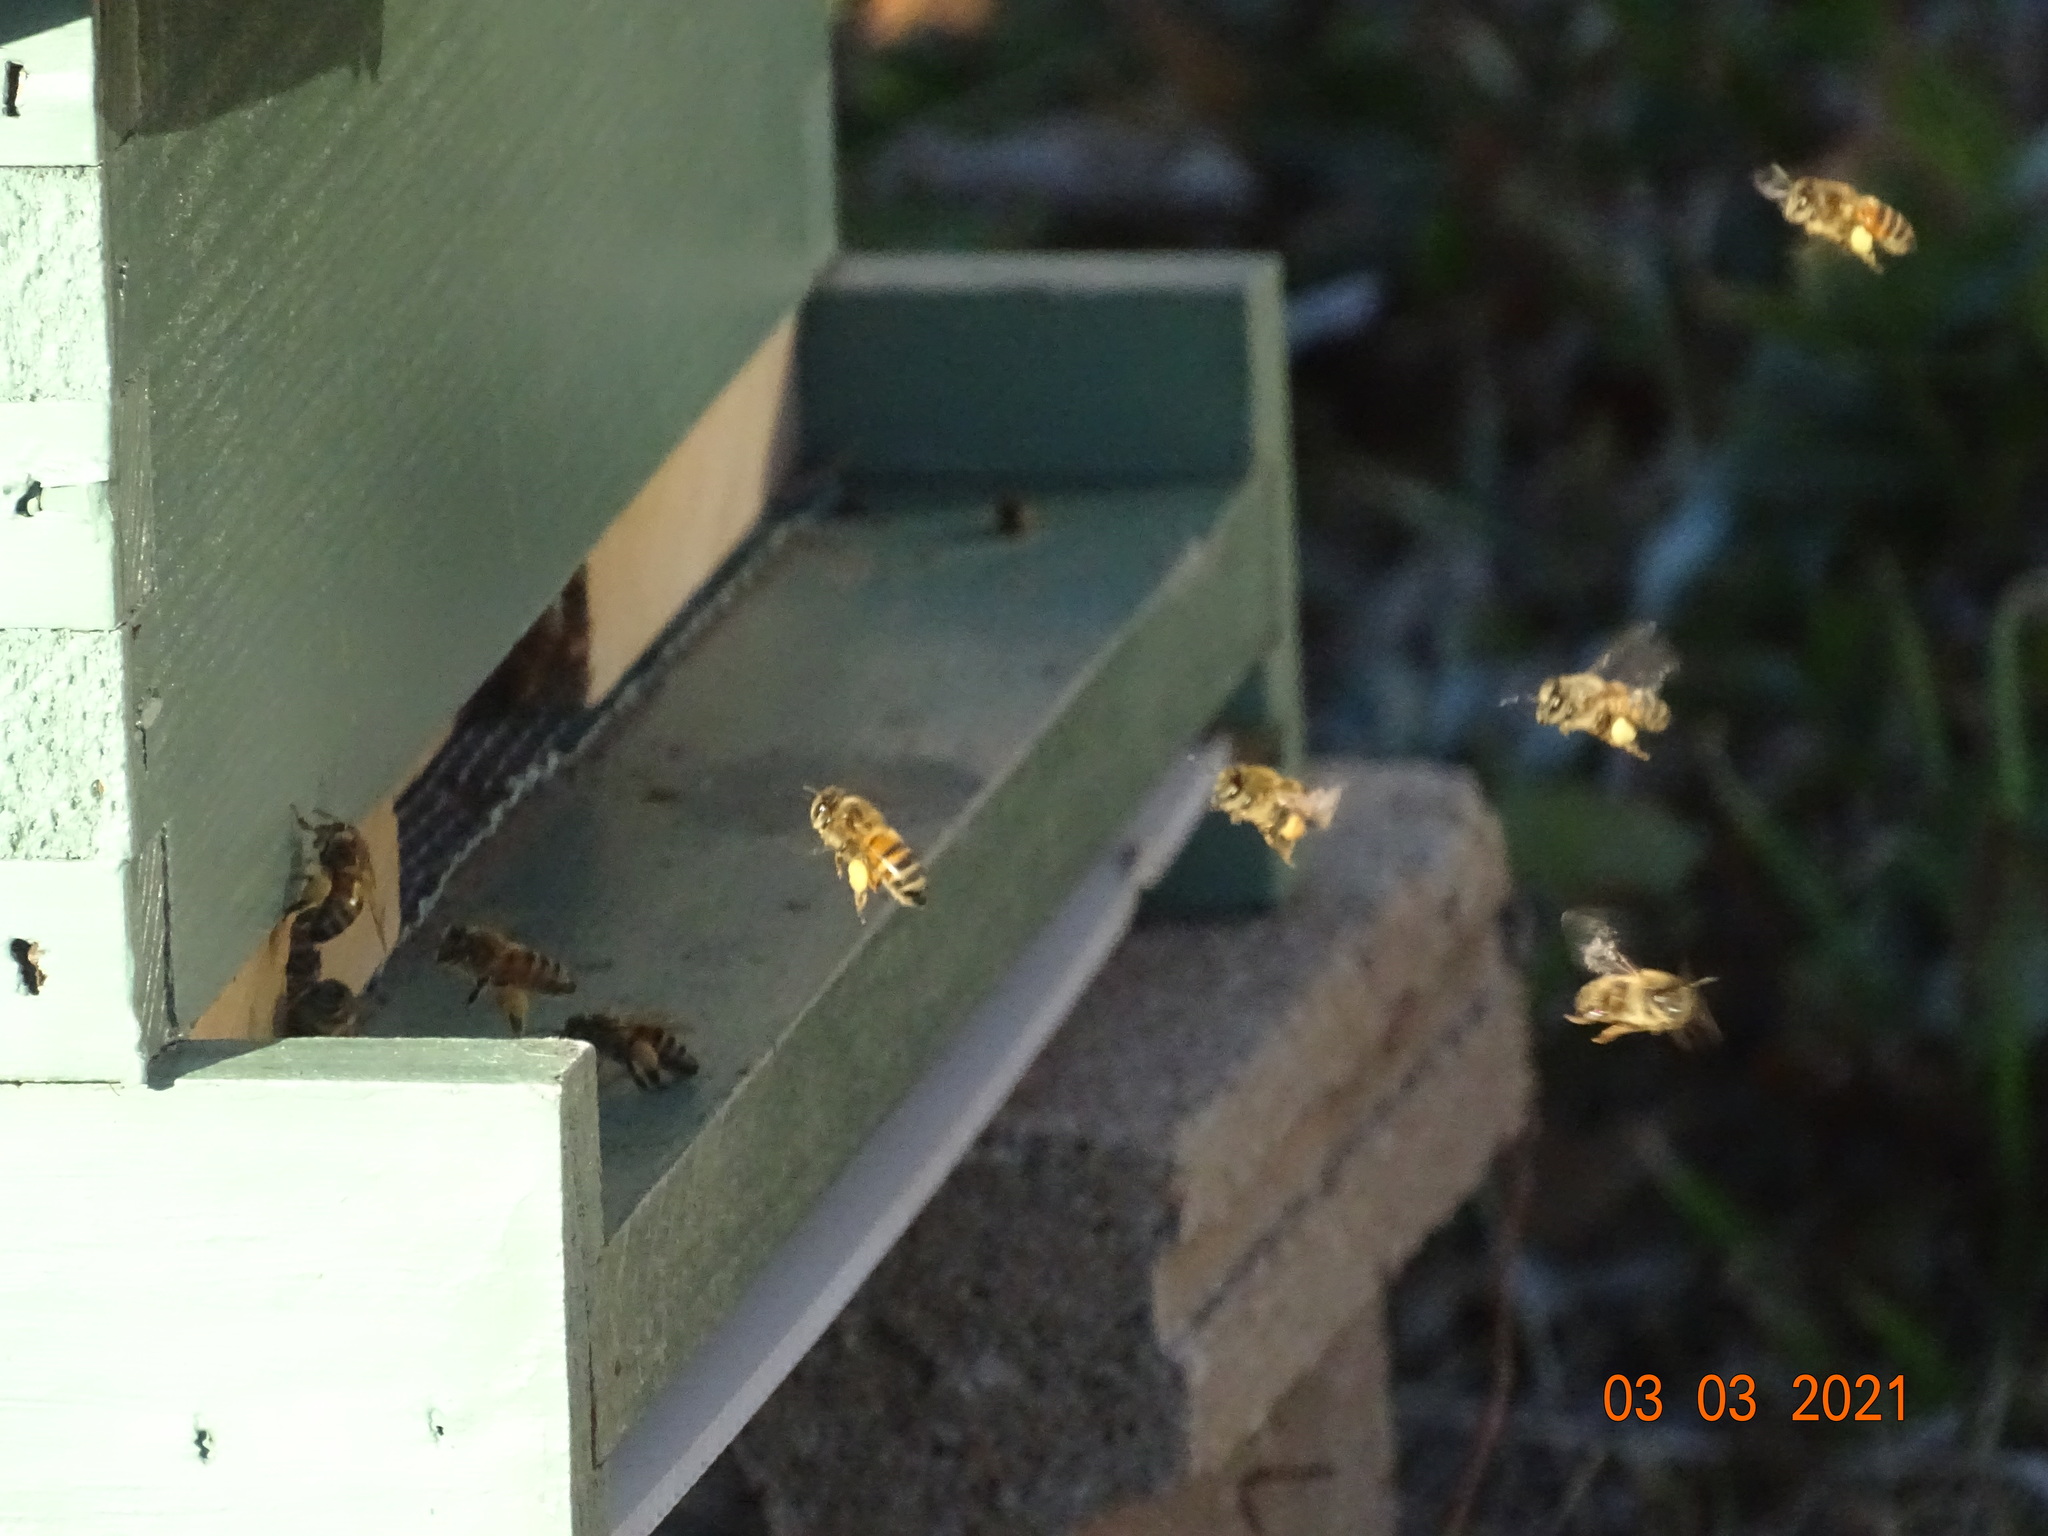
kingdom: Animalia
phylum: Arthropoda
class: Insecta
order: Hymenoptera
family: Apidae
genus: Apis
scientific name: Apis mellifera
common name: Honey bee
